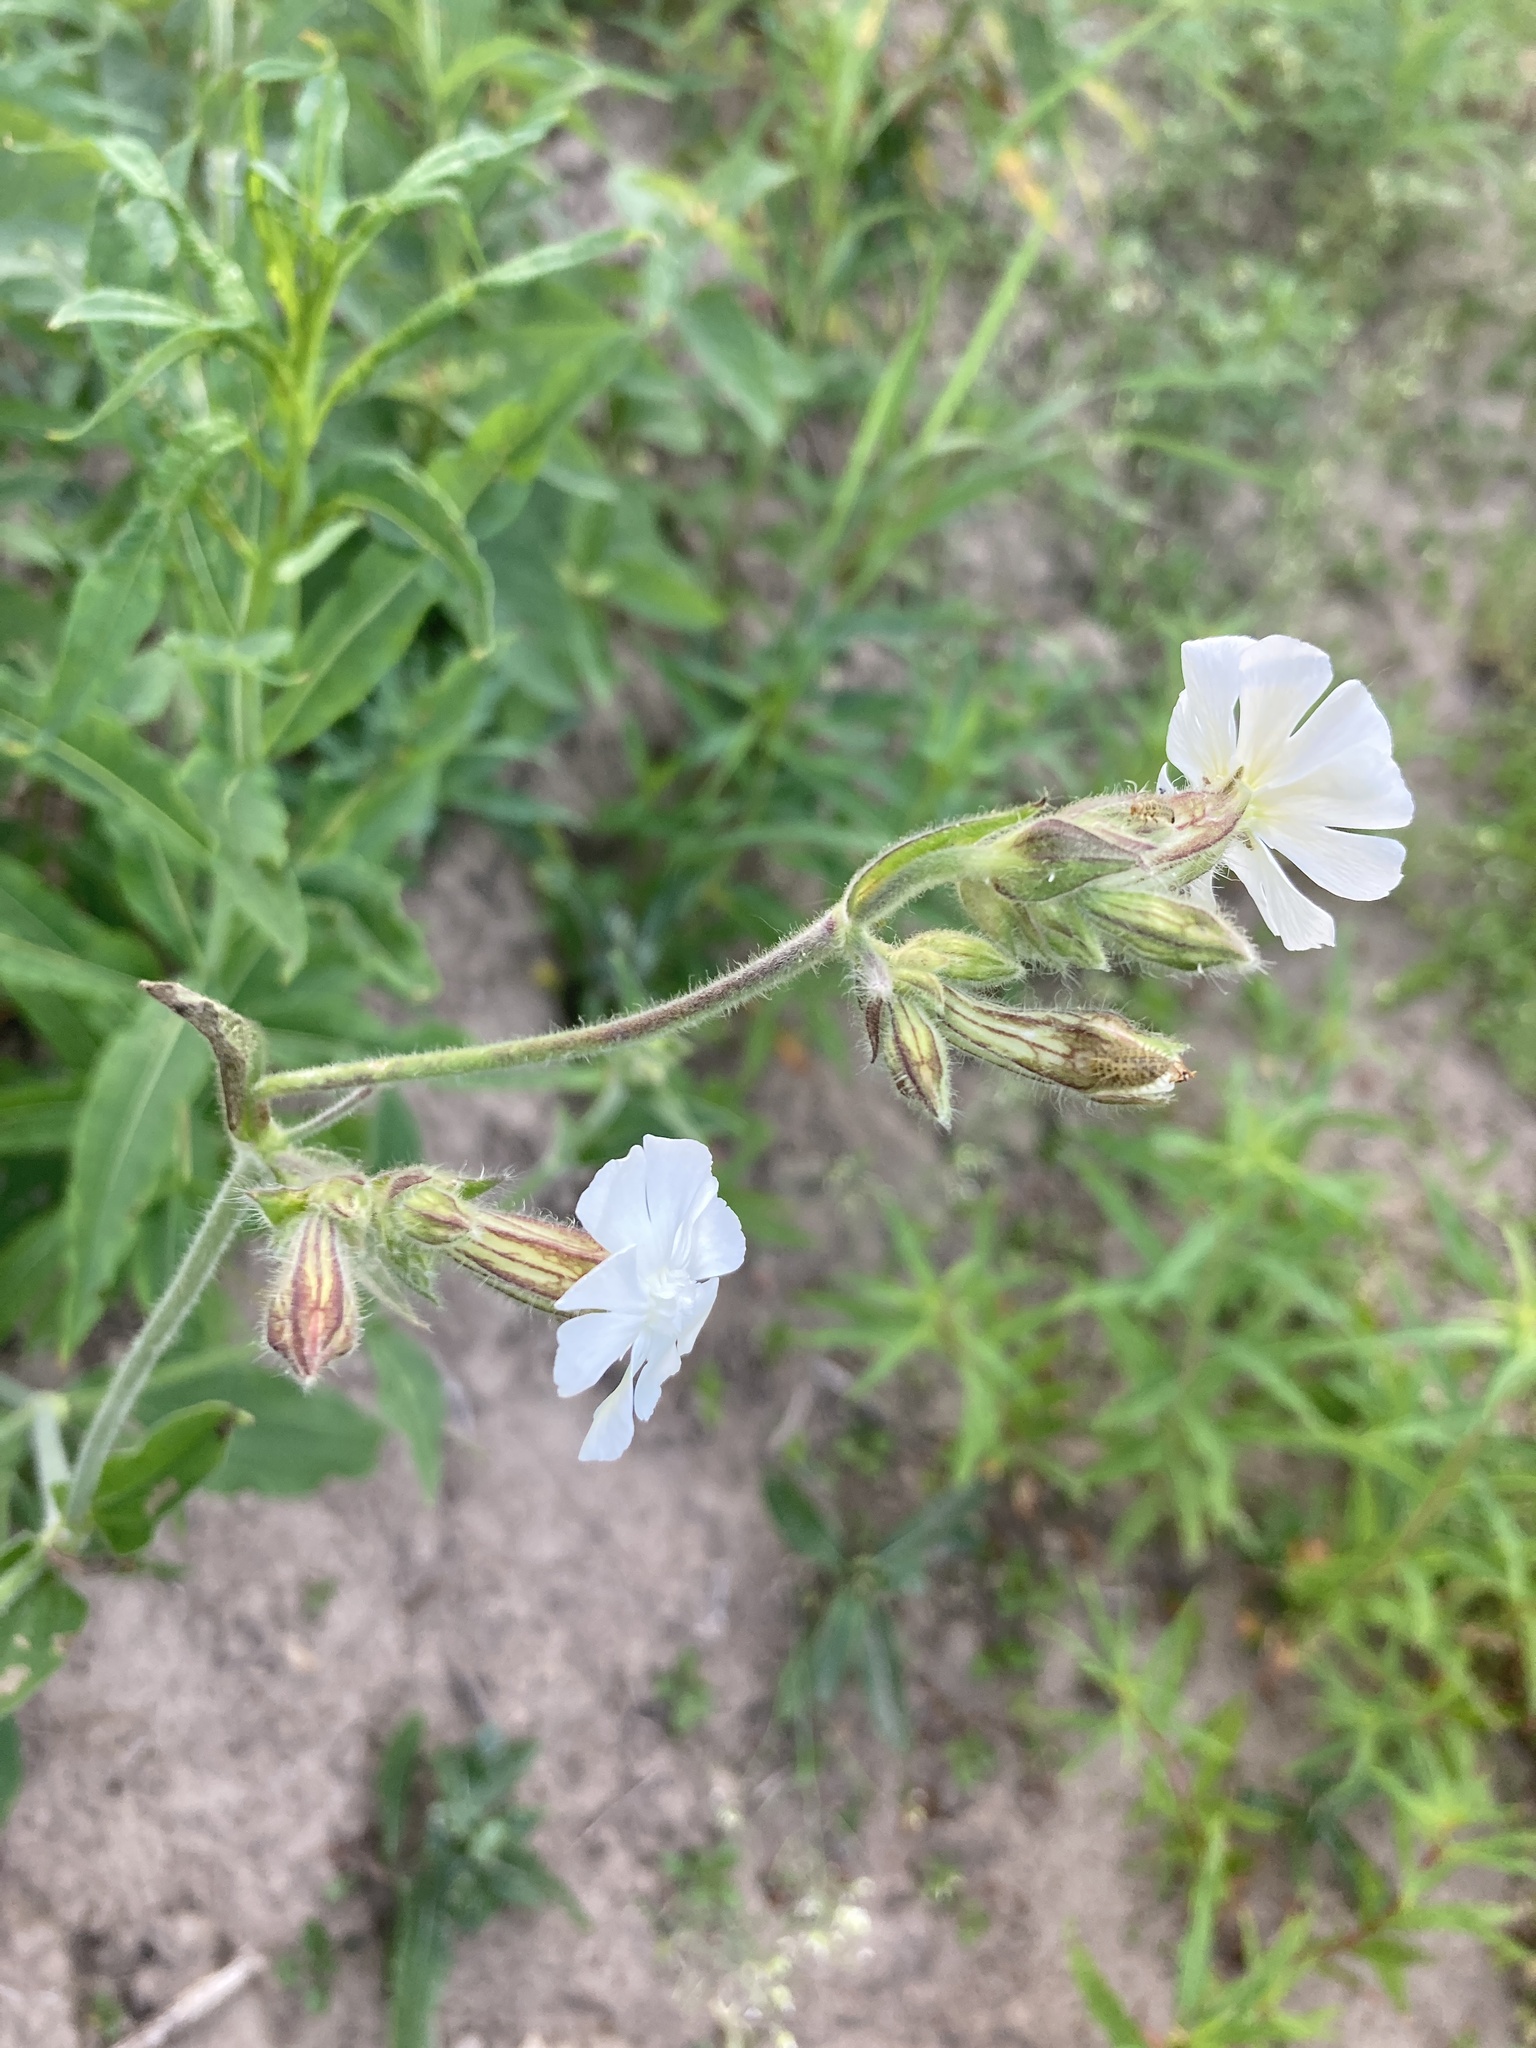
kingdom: Plantae
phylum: Tracheophyta
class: Magnoliopsida
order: Caryophyllales
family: Caryophyllaceae
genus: Silene
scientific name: Silene latifolia
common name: White campion
